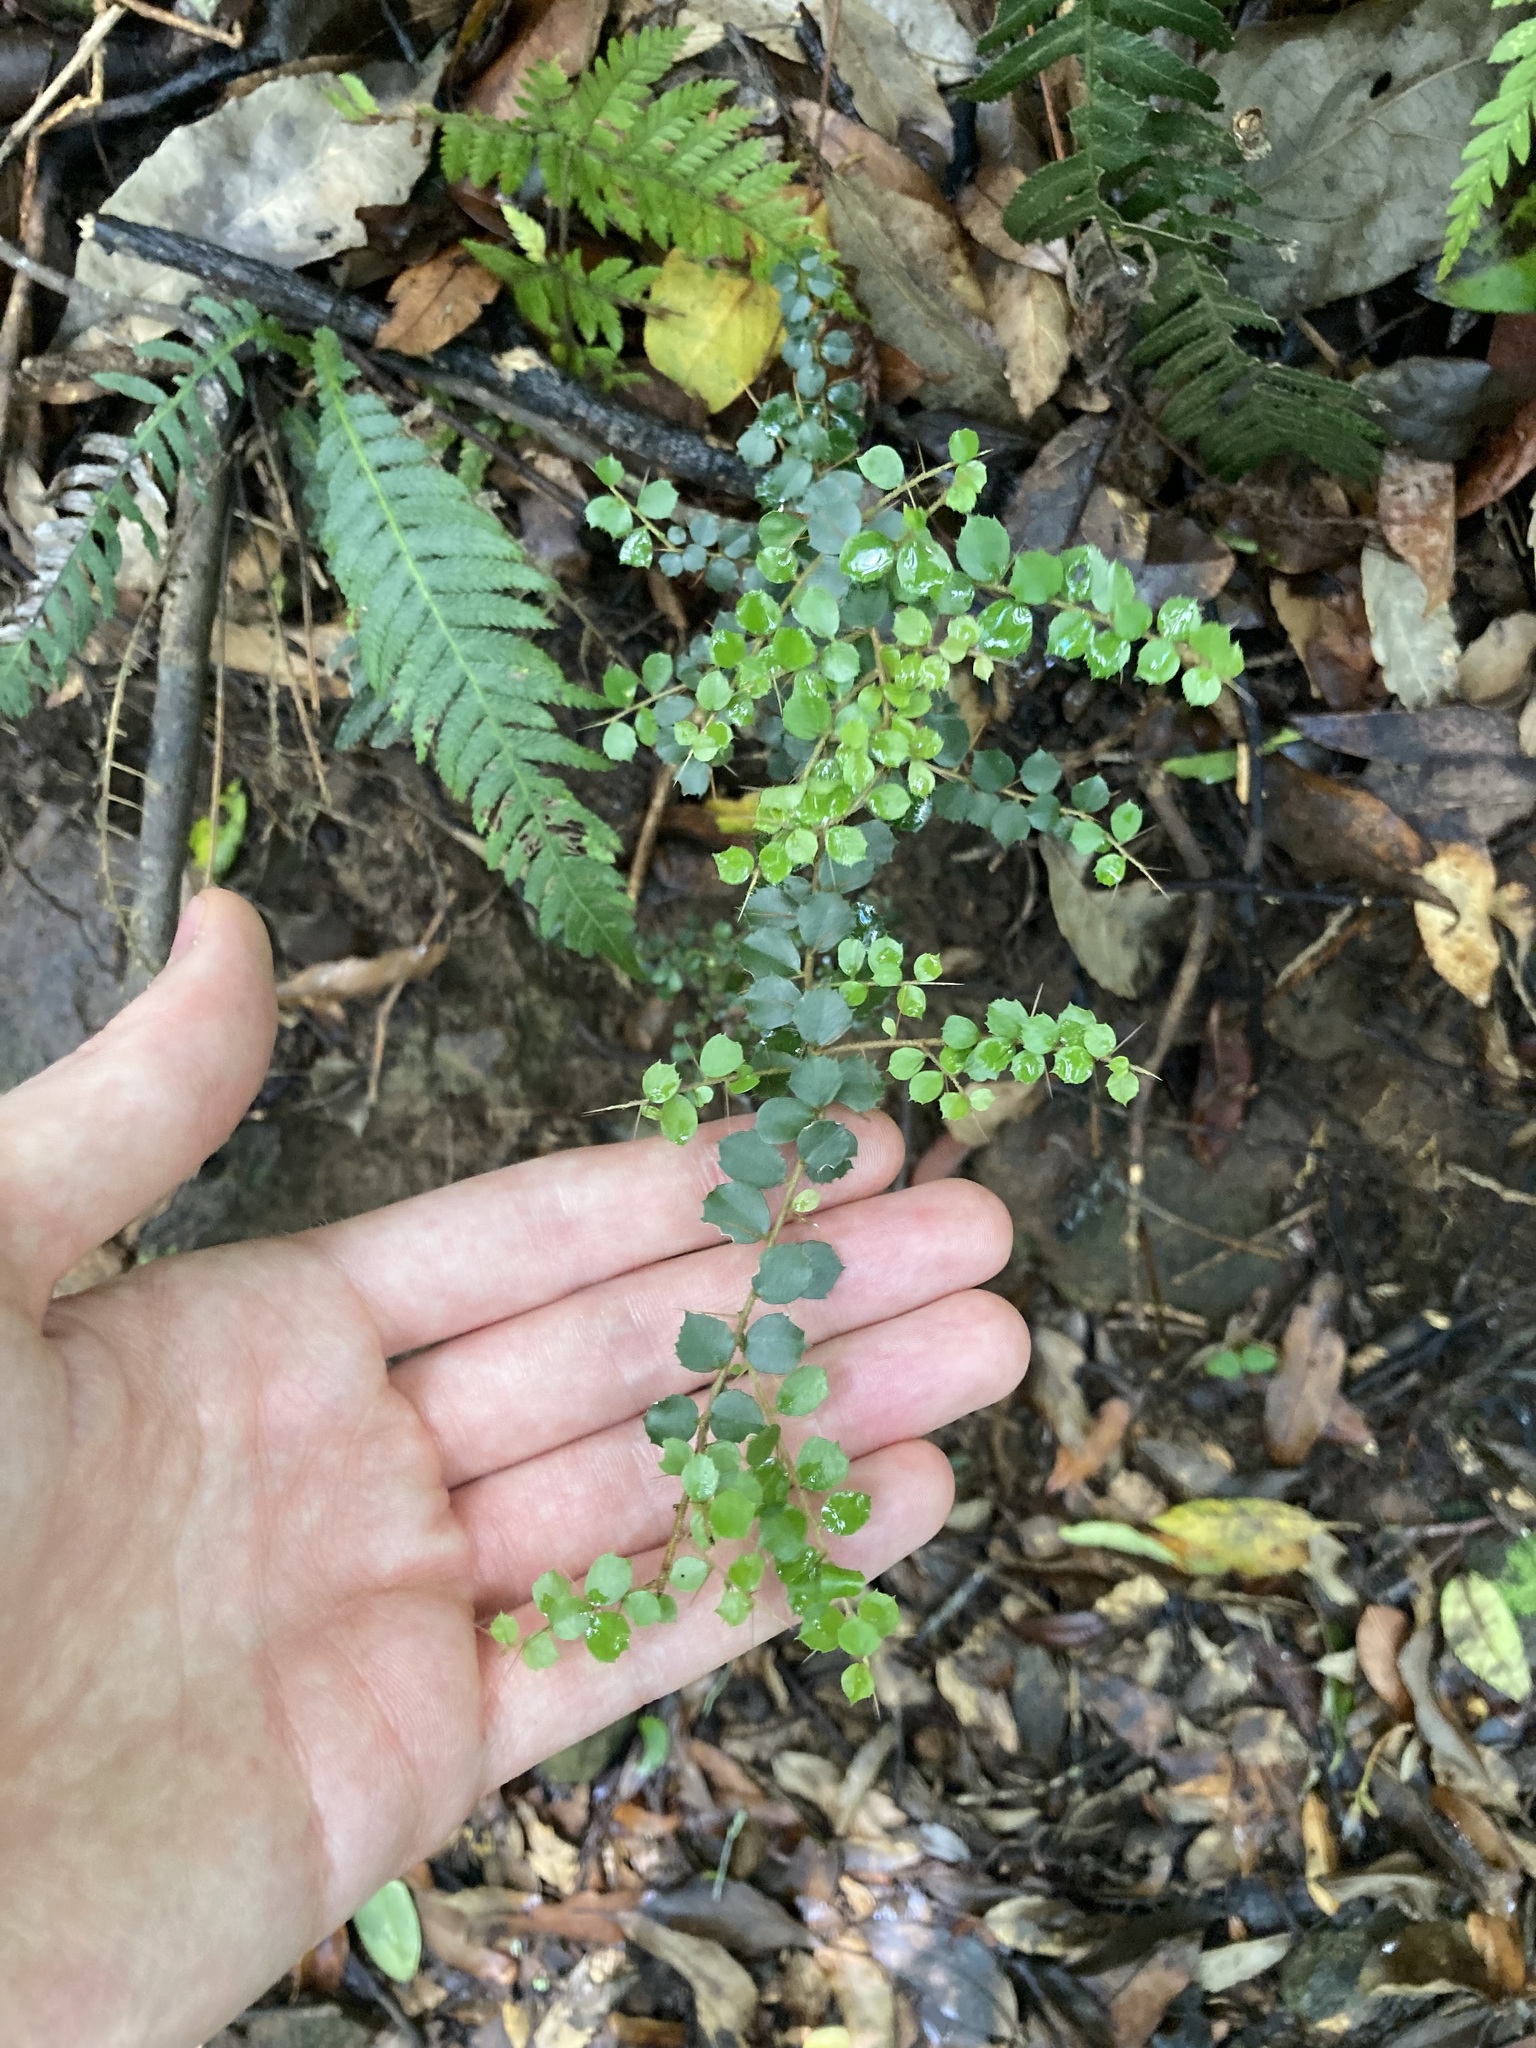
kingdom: Plantae
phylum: Tracheophyta
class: Magnoliopsida
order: Apiales
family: Pittosporaceae
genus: Pittosporum
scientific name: Pittosporum multiflorum
